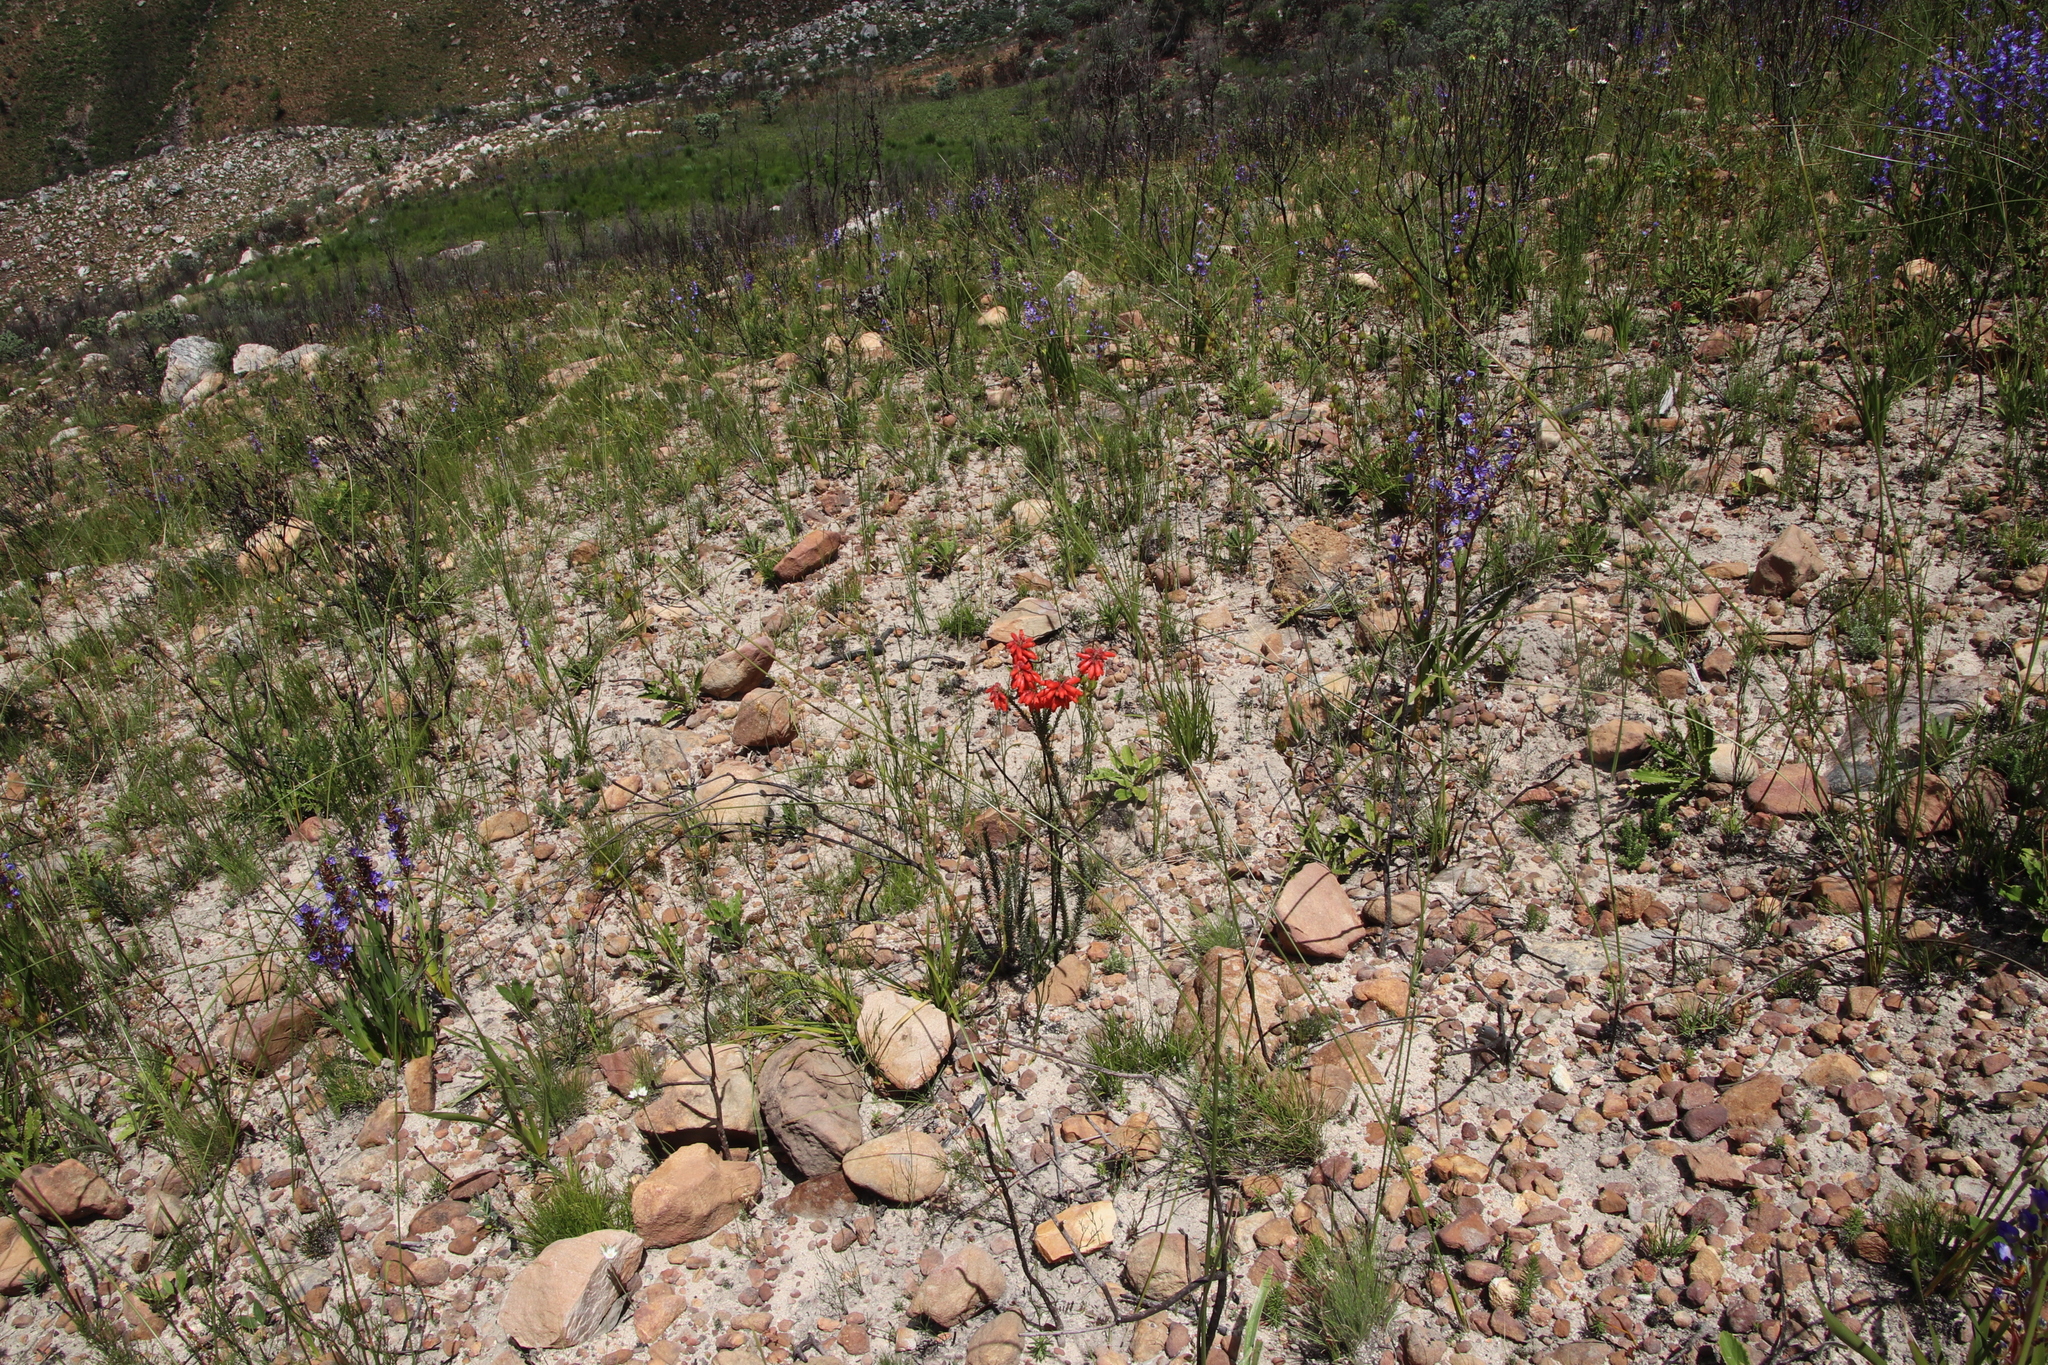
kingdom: Plantae
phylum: Tracheophyta
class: Magnoliopsida
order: Ericales
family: Ericaceae
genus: Erica
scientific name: Erica cerinthoides
